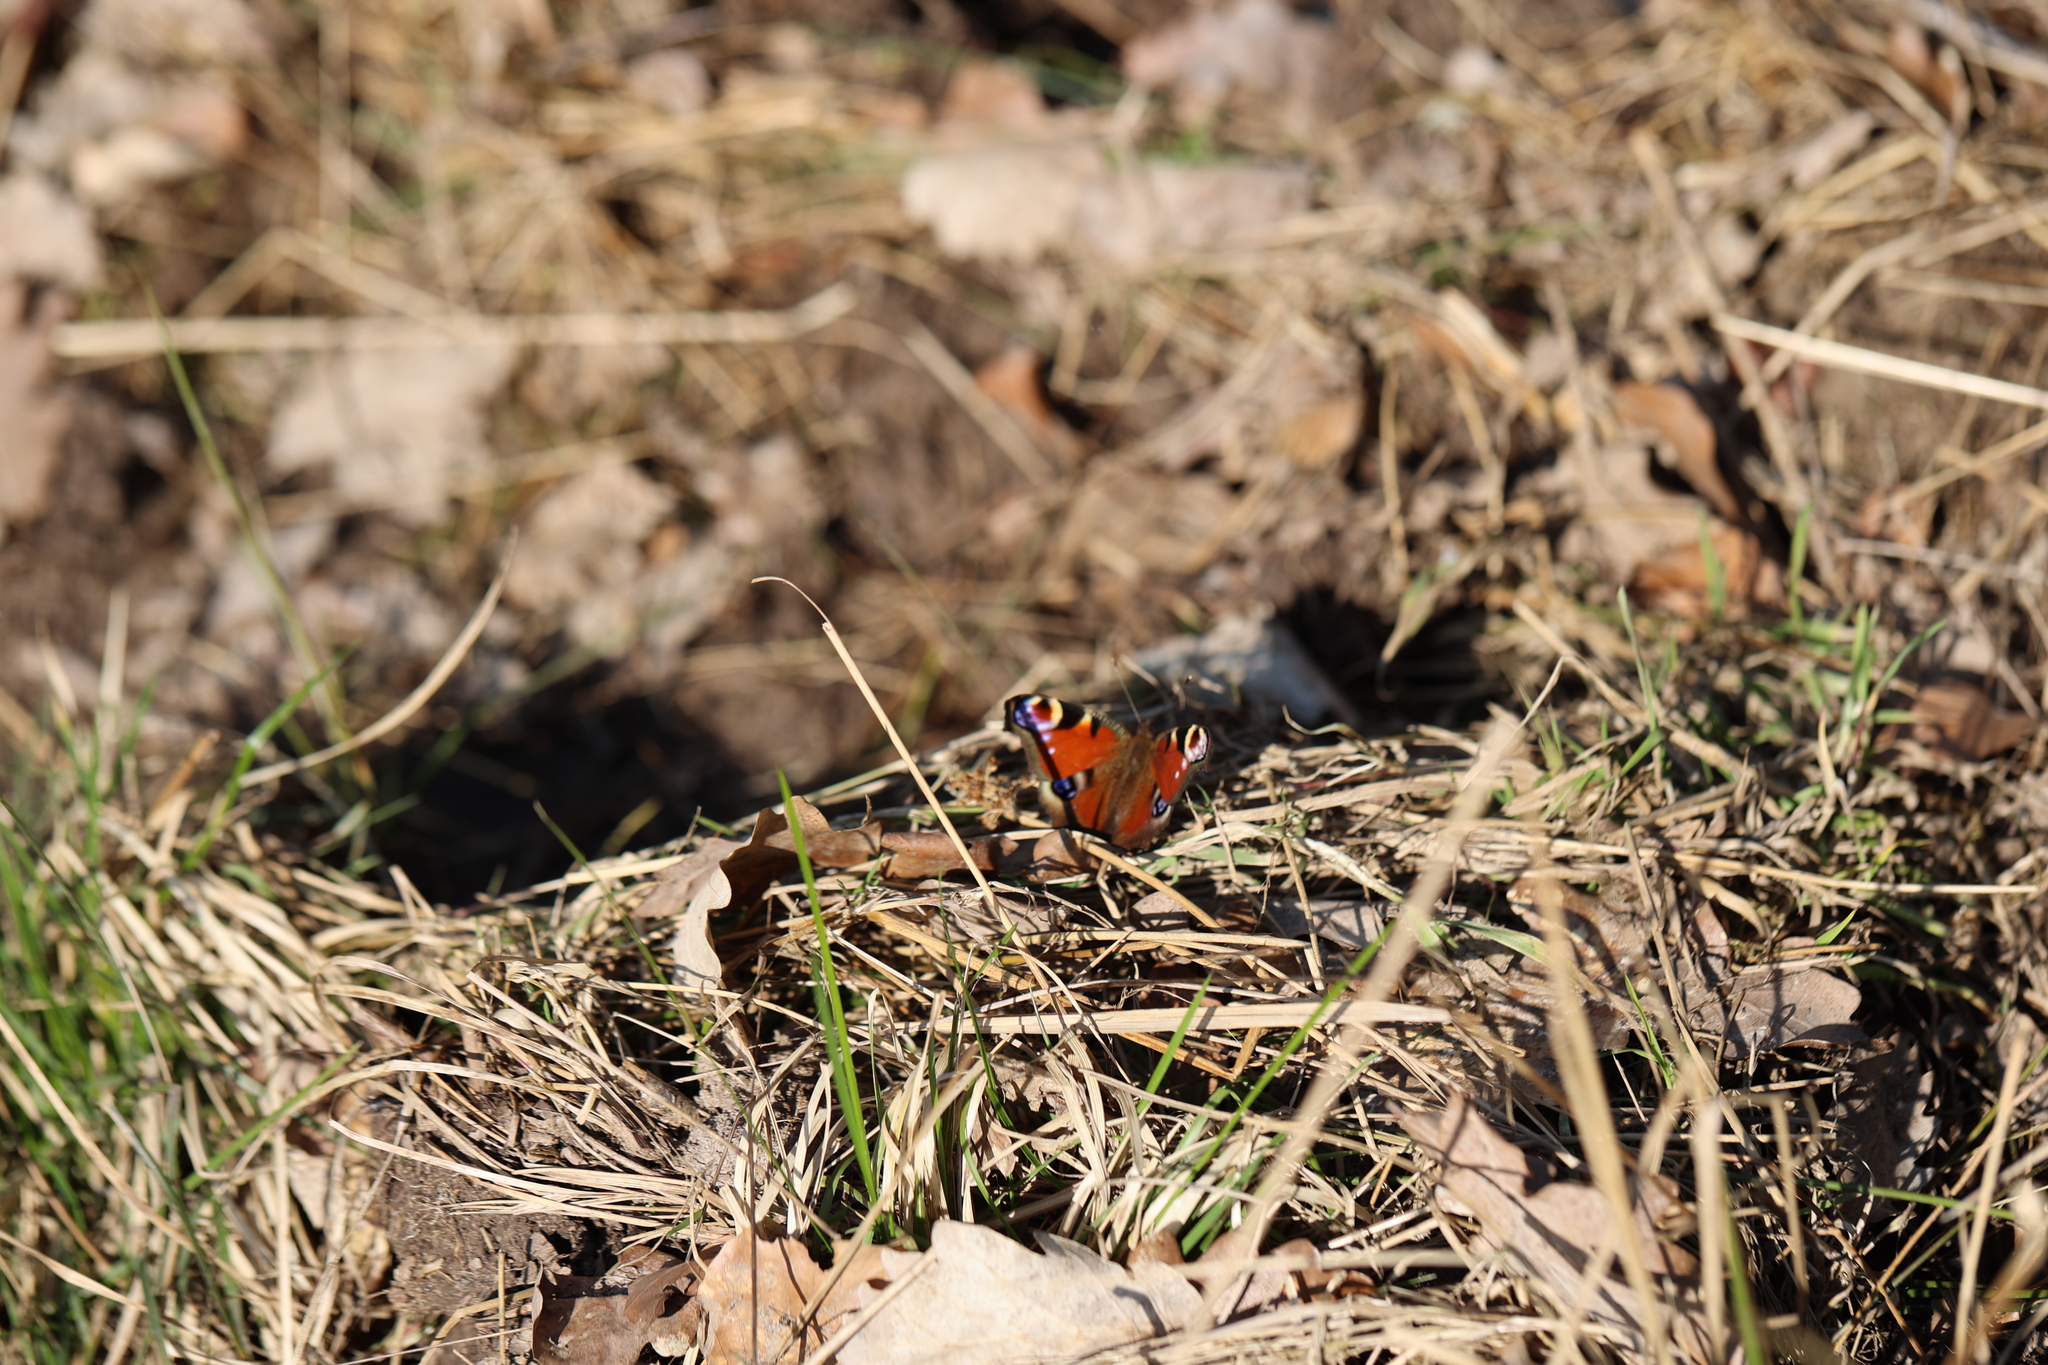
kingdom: Animalia
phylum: Arthropoda
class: Insecta
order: Lepidoptera
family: Nymphalidae
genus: Aglais
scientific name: Aglais io
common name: Peacock
